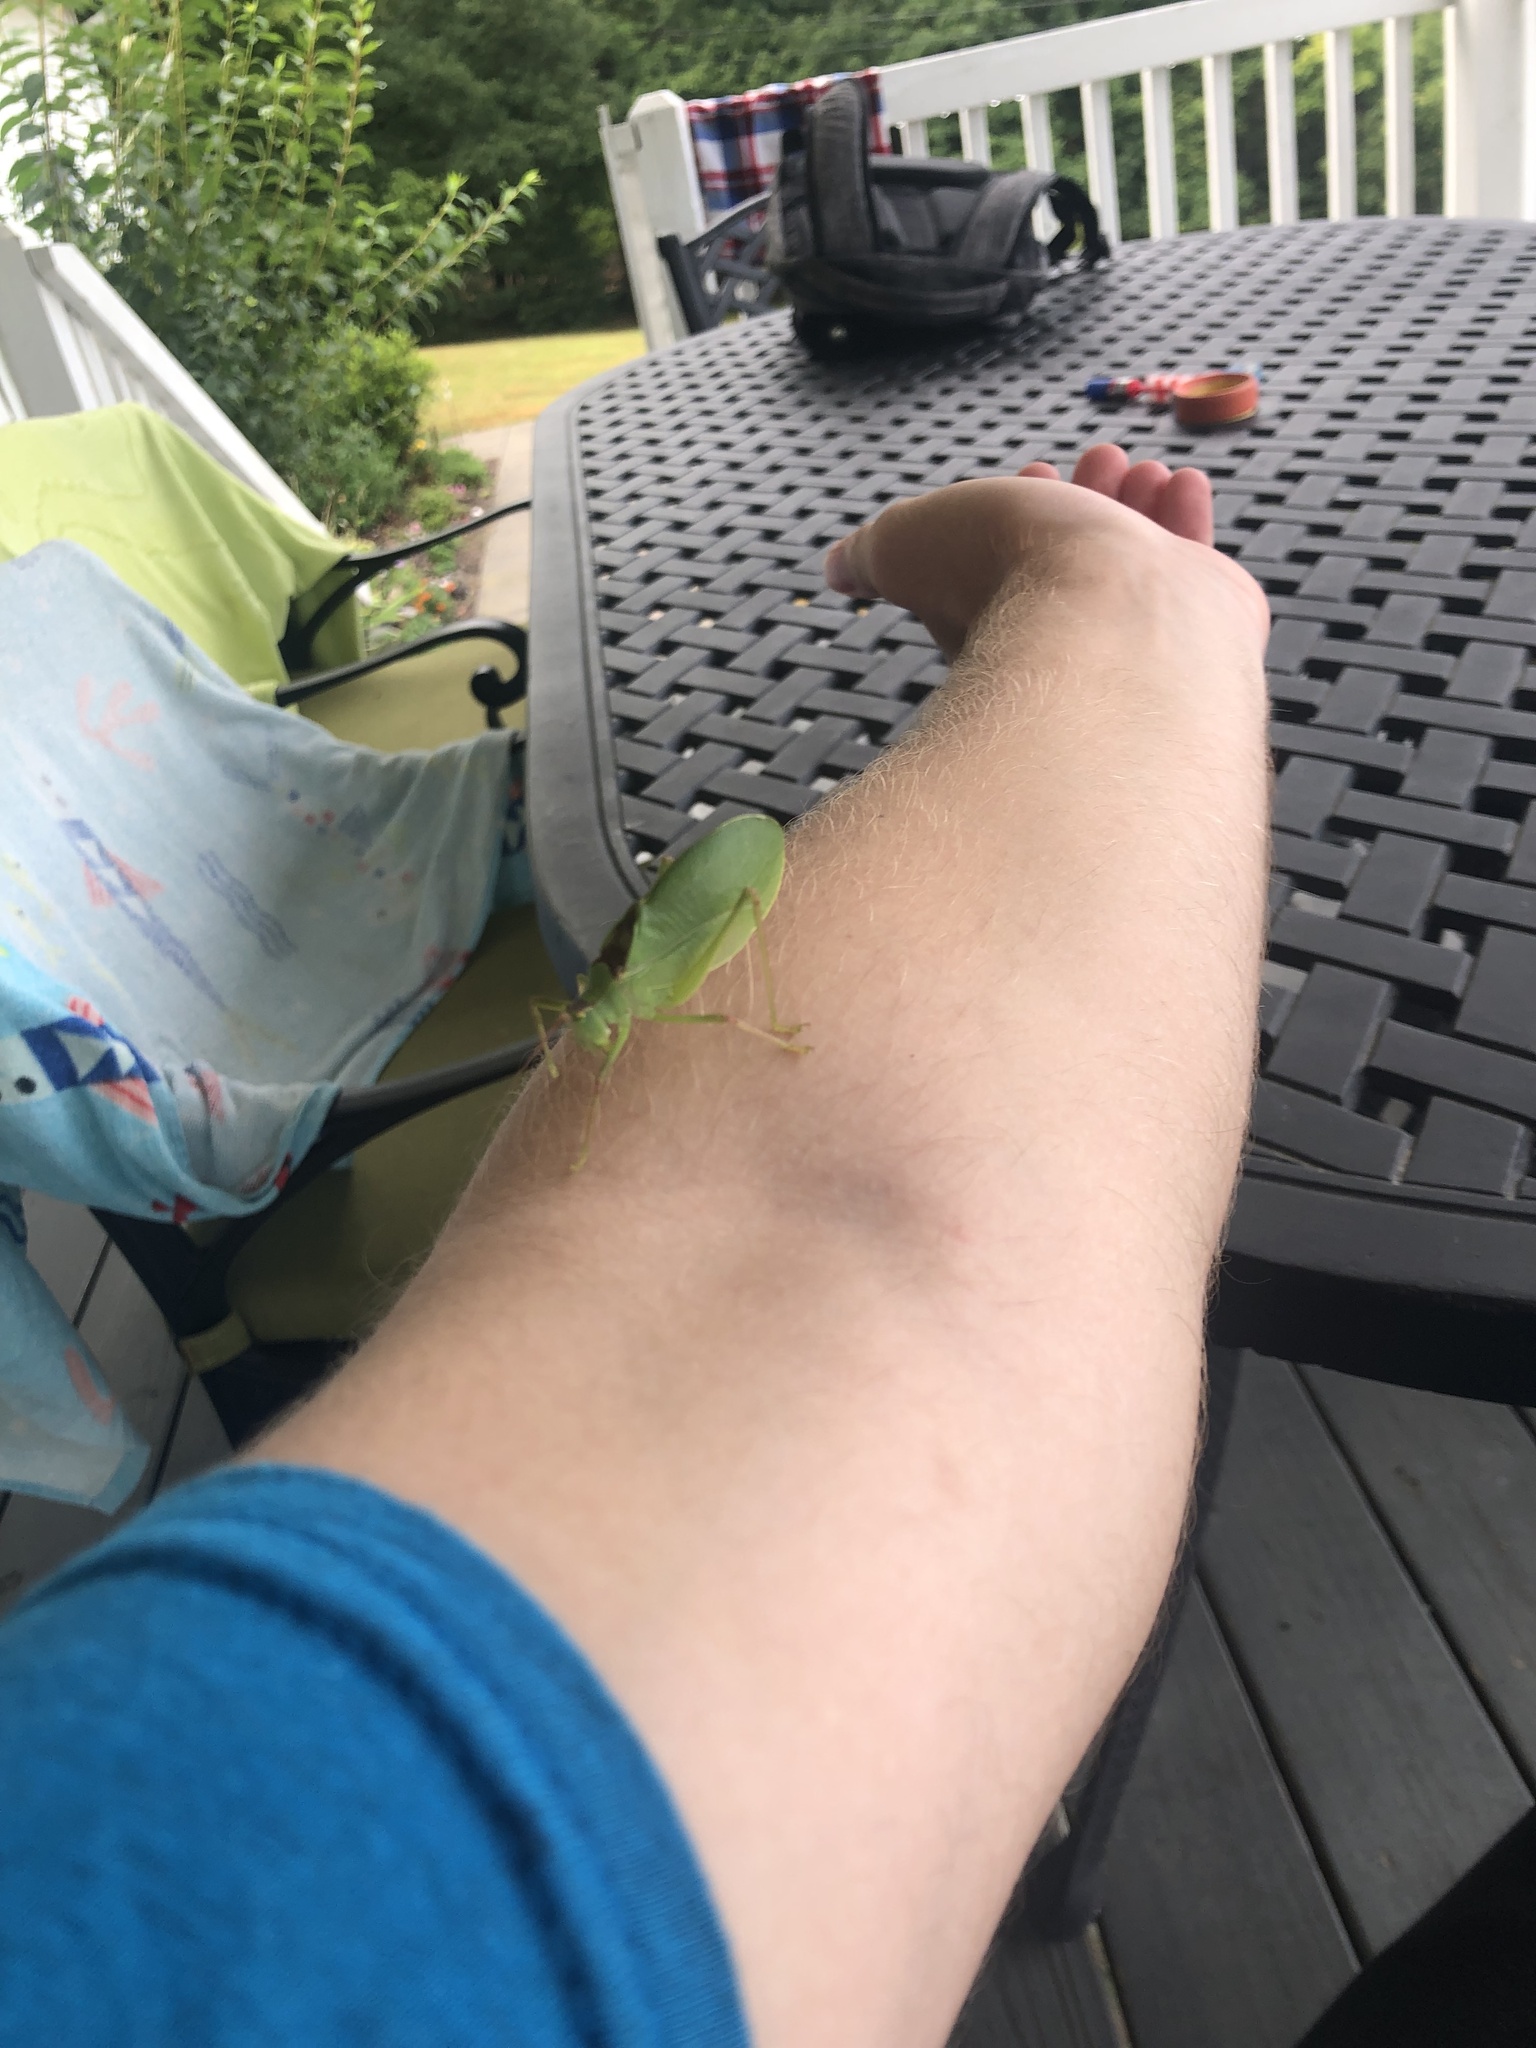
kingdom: Animalia
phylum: Arthropoda
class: Insecta
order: Orthoptera
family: Tettigoniidae
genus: Pterophylla
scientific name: Pterophylla camellifolia
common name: Common true katydid
